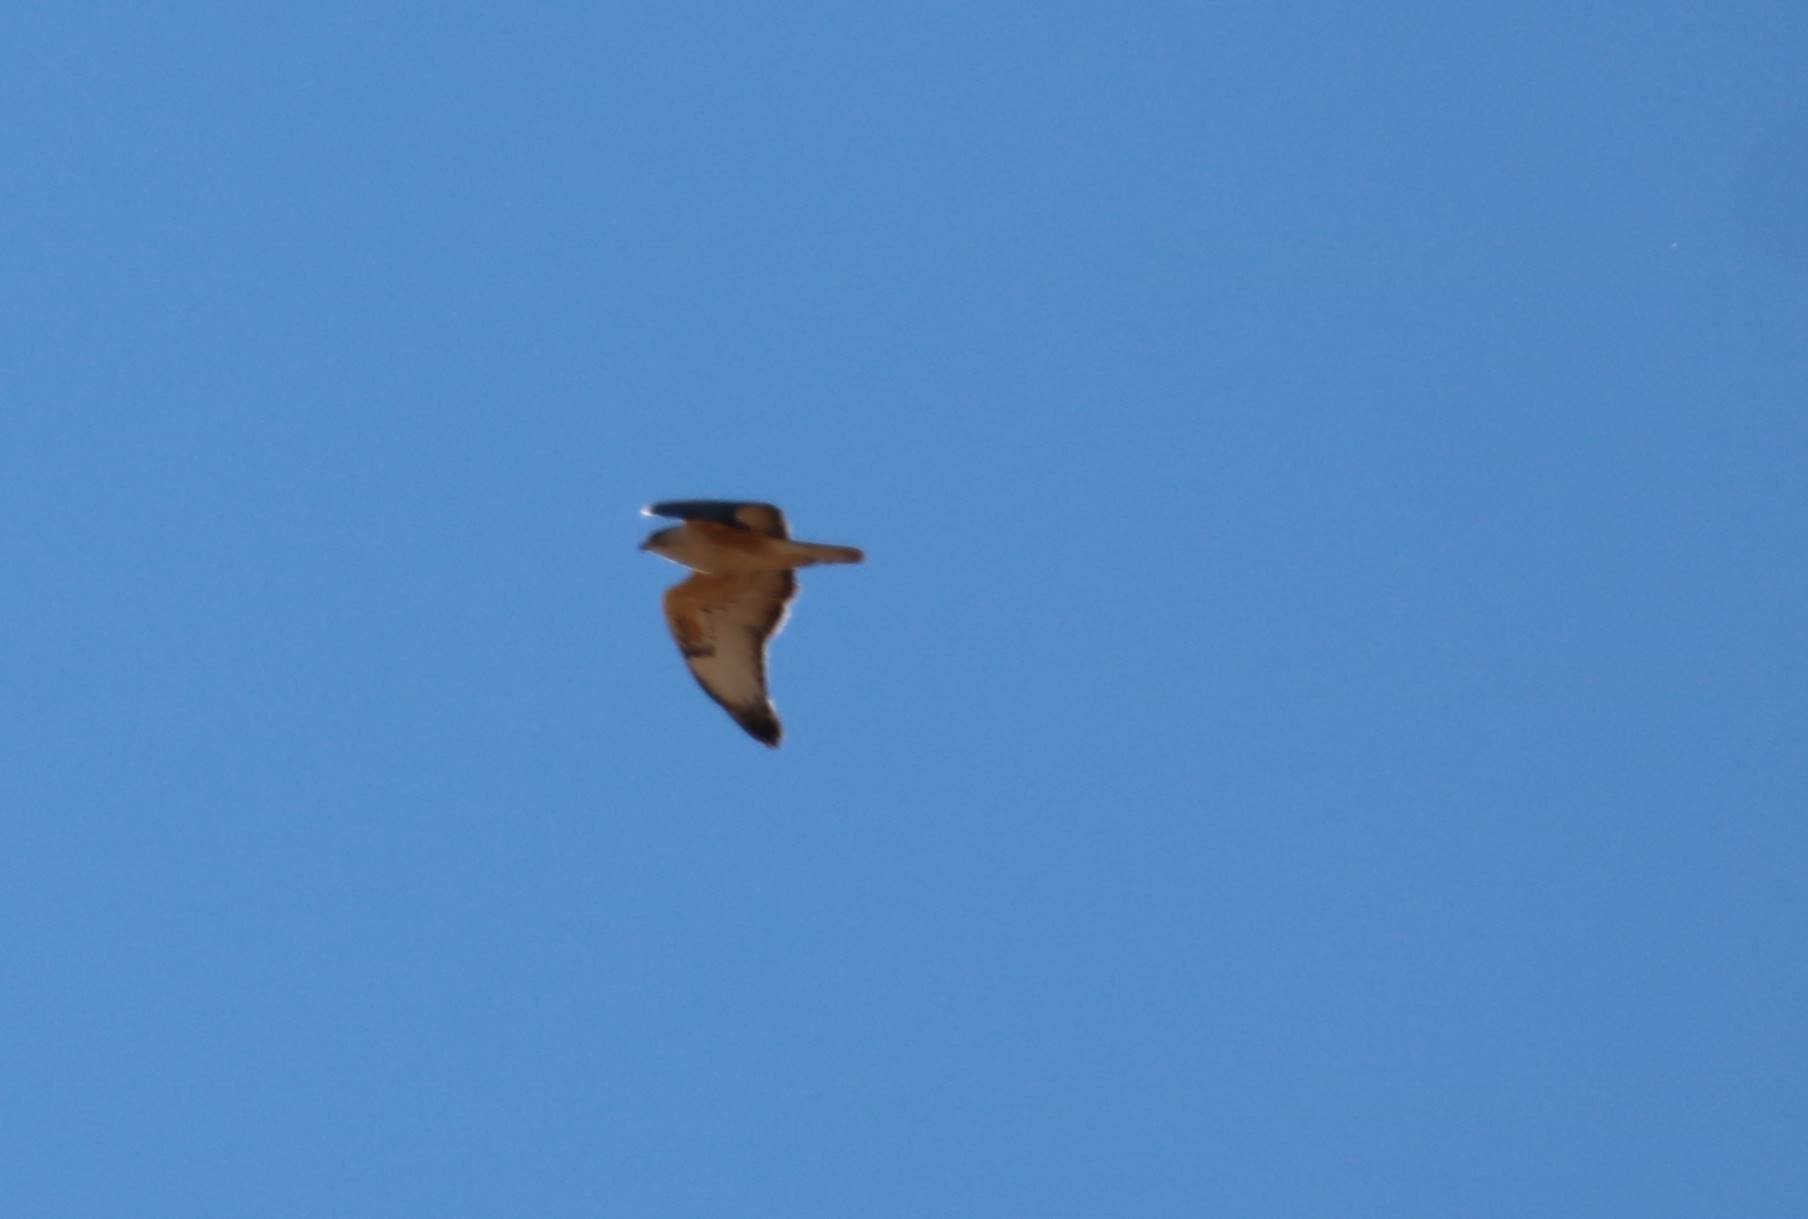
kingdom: Animalia
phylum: Chordata
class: Aves
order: Accipitriformes
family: Accipitridae
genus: Buteo
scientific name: Buteo rufinus
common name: Long-legged buzzard
